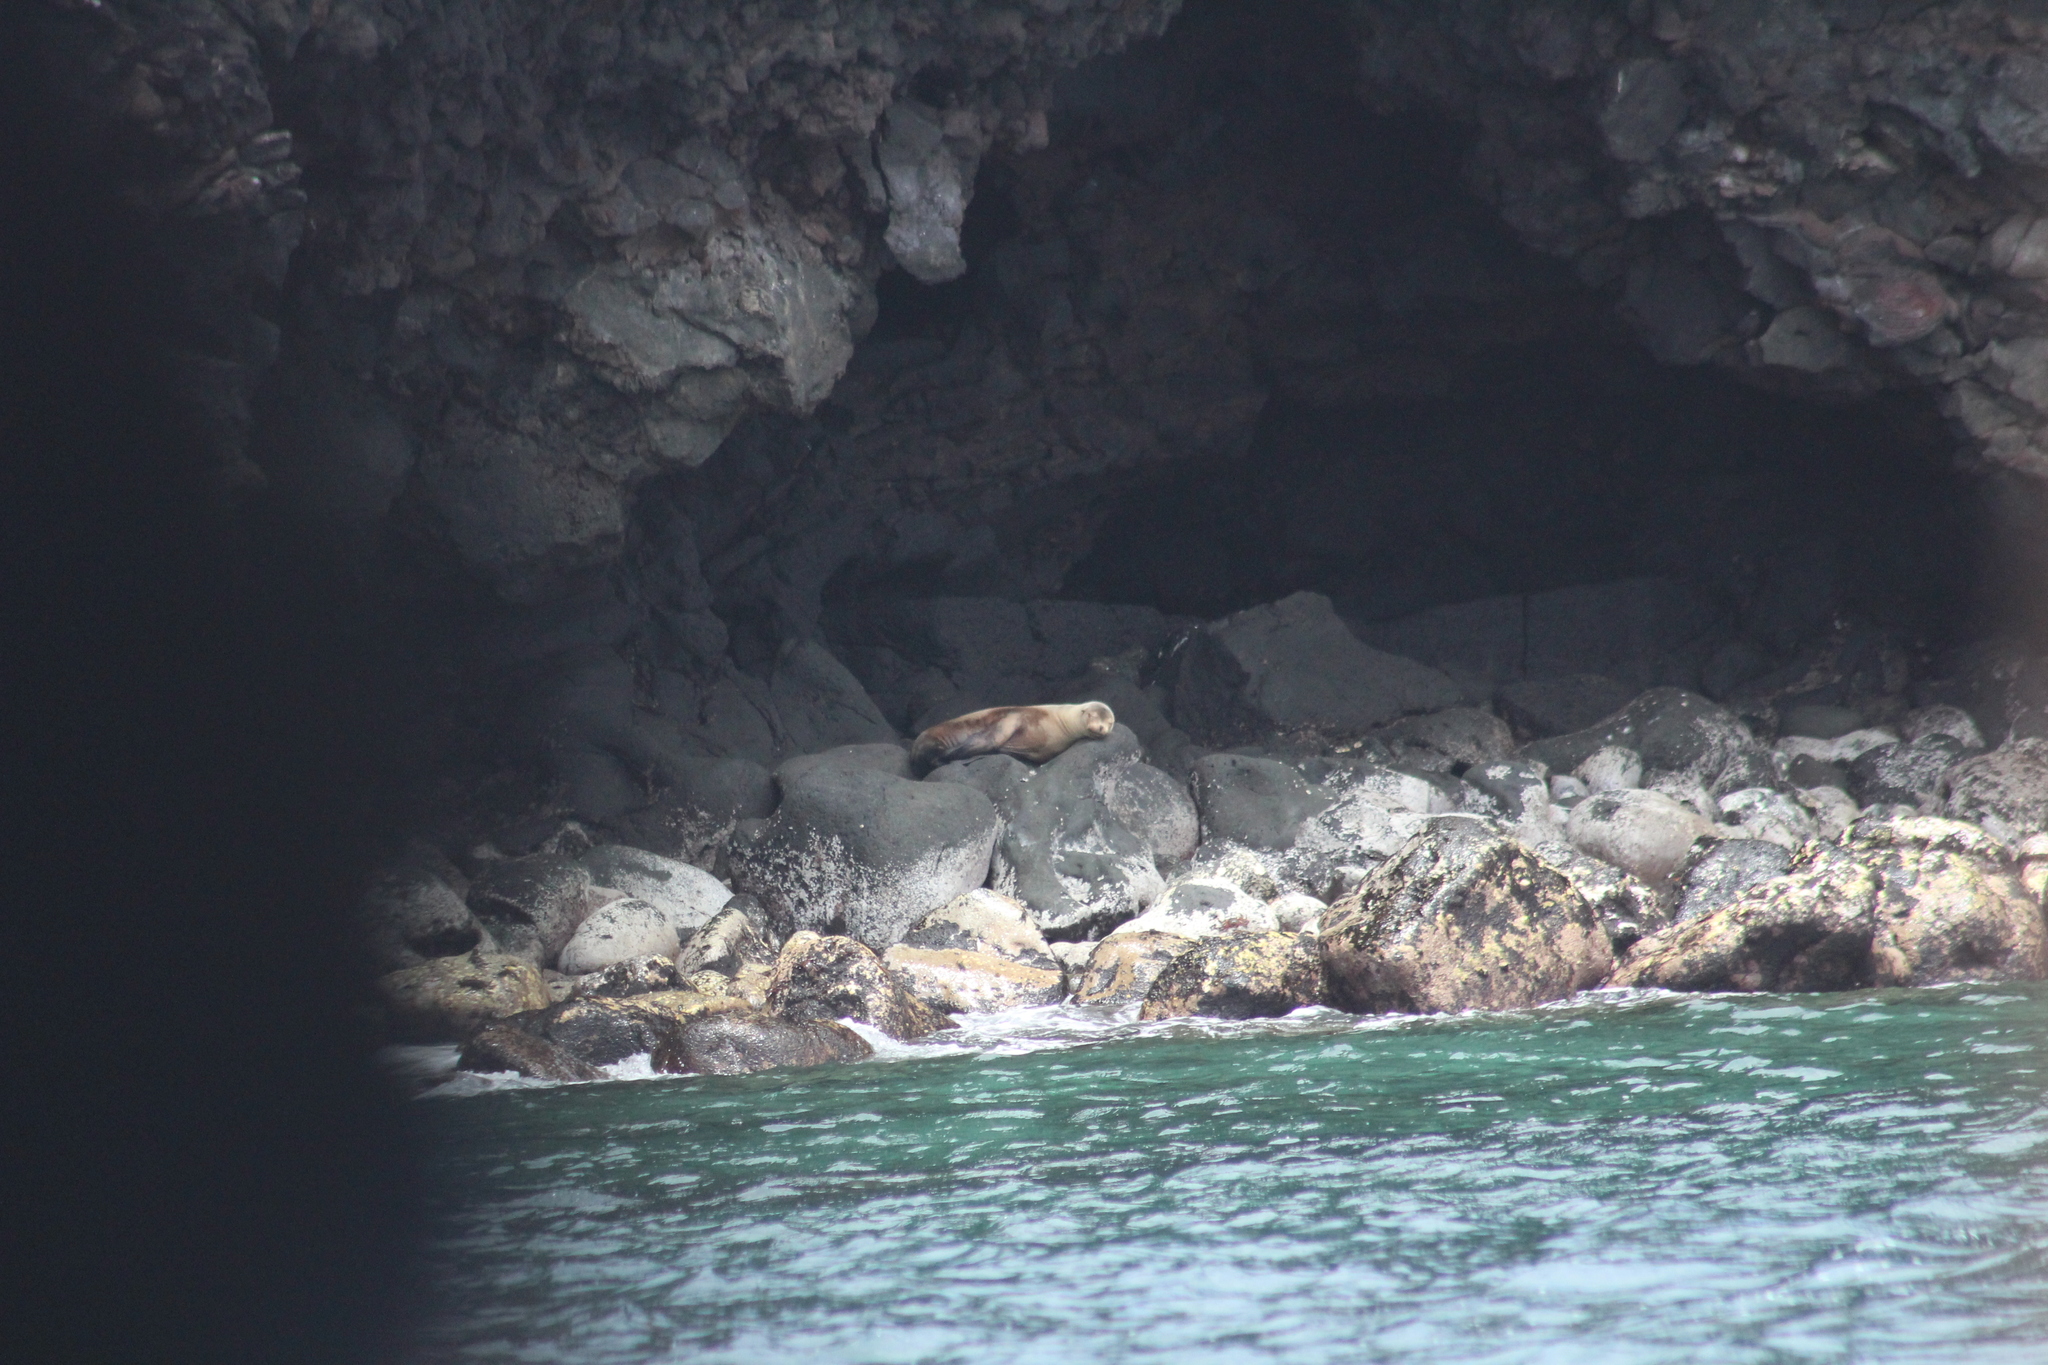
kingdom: Animalia
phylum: Chordata
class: Mammalia
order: Carnivora
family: Otariidae
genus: Zalophus
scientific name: Zalophus wollebaeki
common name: Galapagos sea lion
